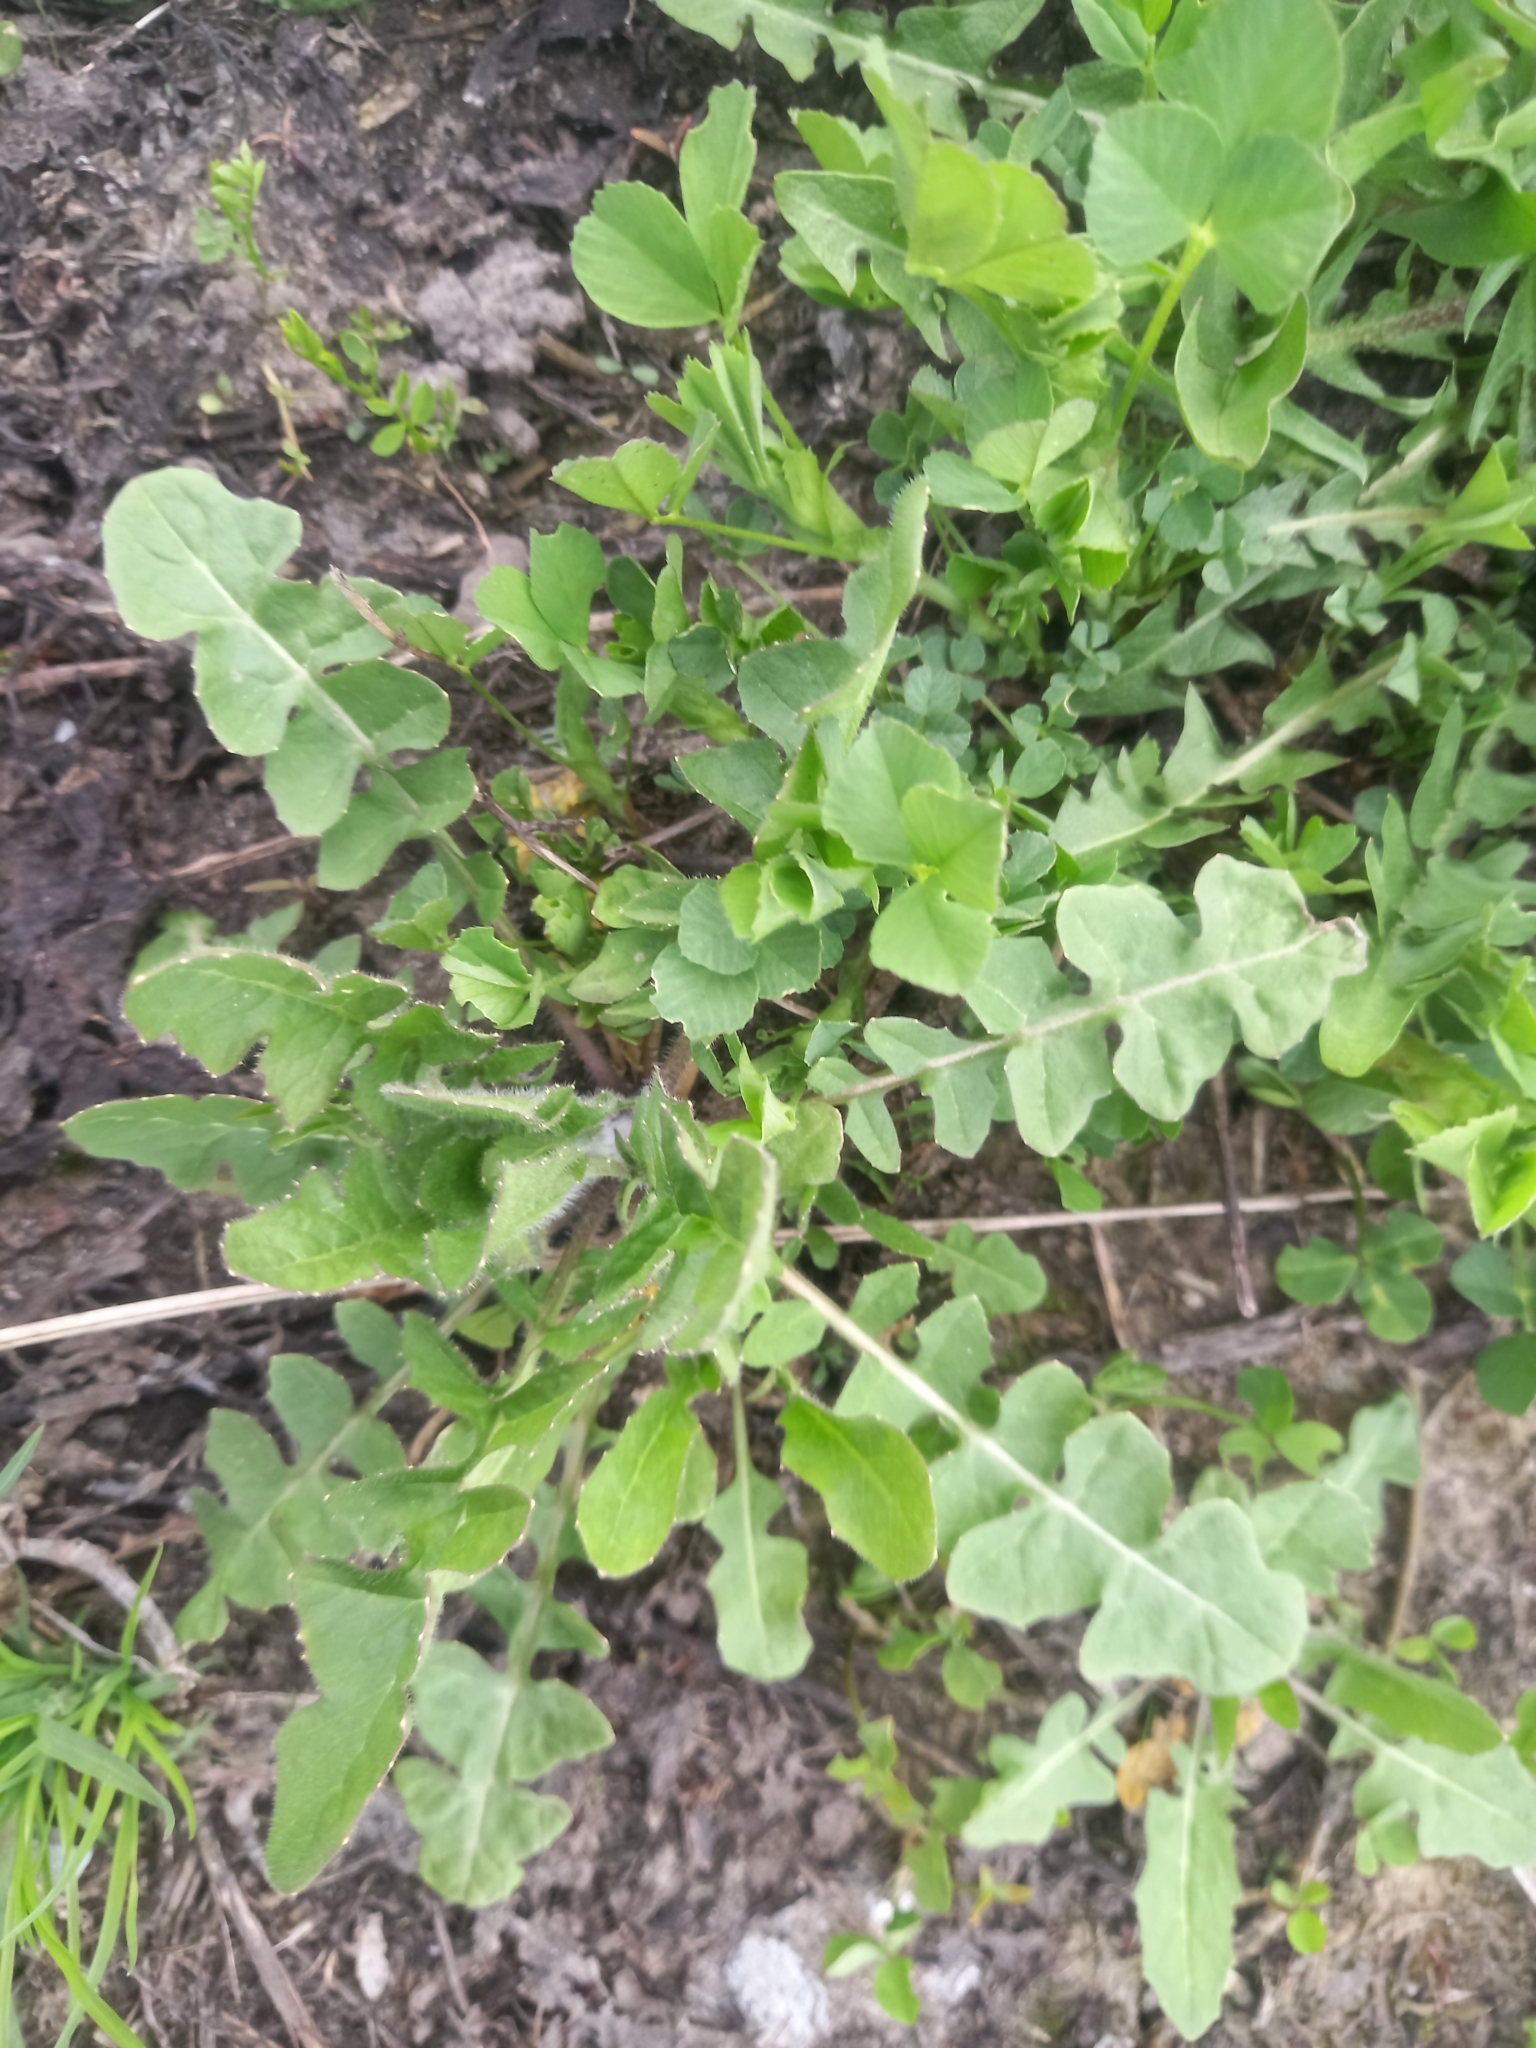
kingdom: Plantae
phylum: Tracheophyta
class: Magnoliopsida
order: Brassicales
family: Brassicaceae
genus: Sisymbrium
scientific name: Sisymbrium loeselii
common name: False london-rocket
